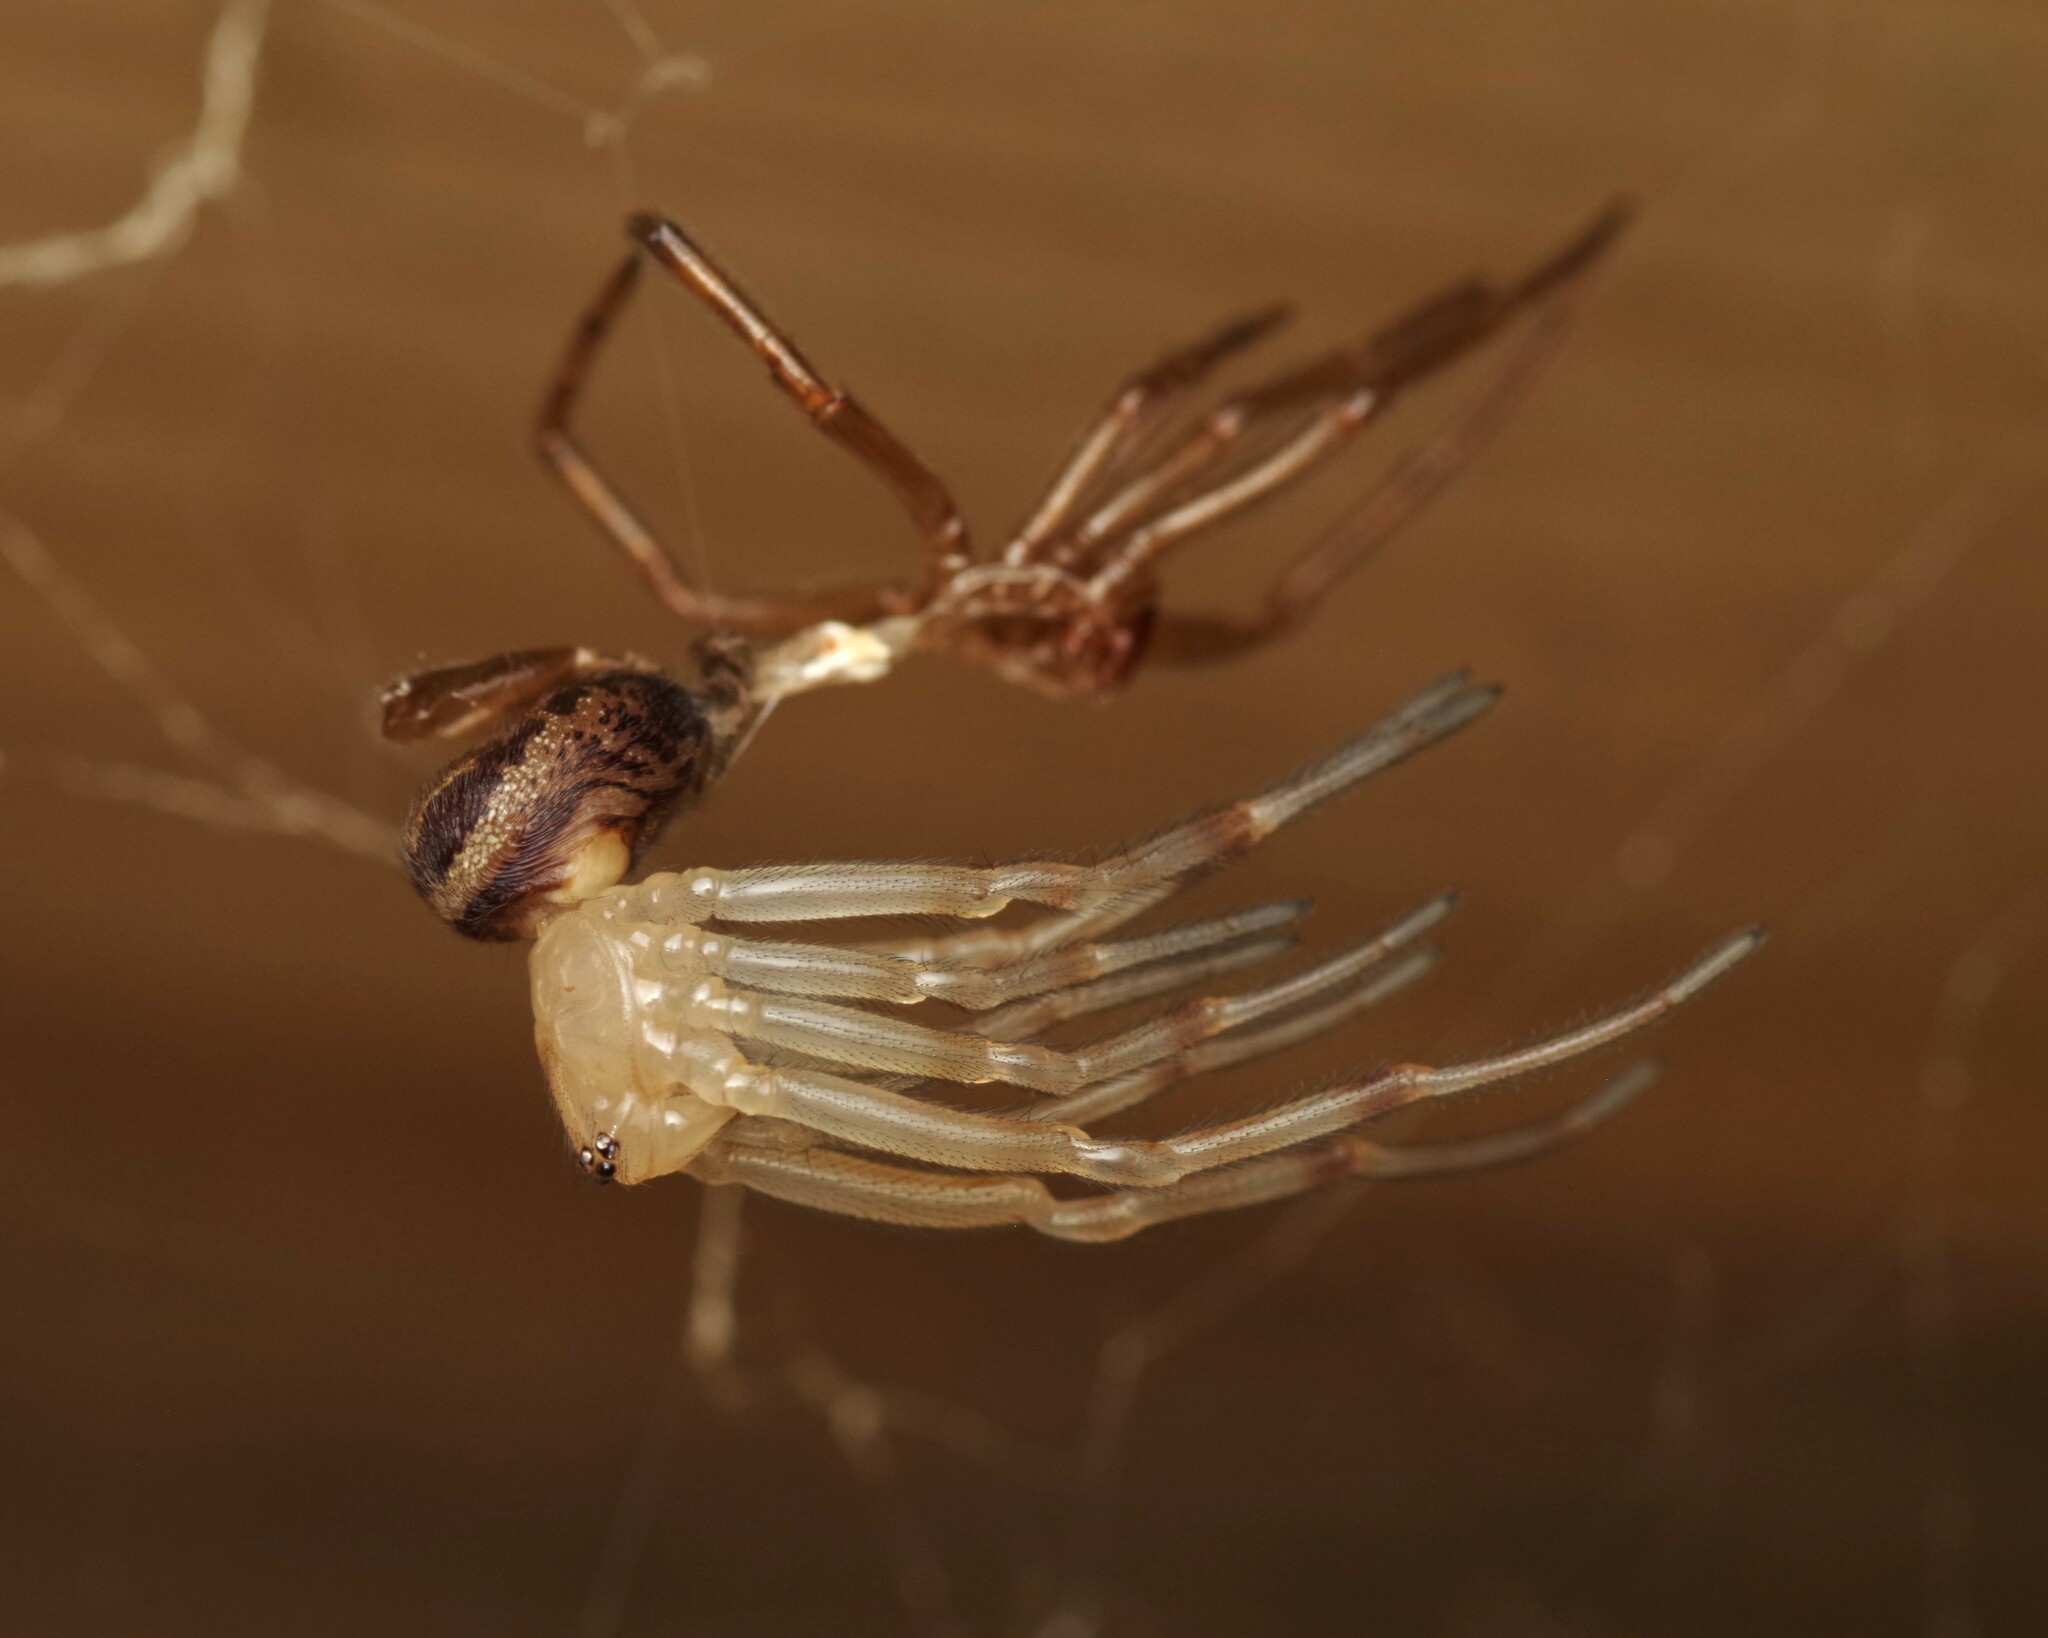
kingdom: Animalia
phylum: Arthropoda
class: Arachnida
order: Araneae
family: Theridiidae
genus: Steatoda
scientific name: Steatoda nobilis
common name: Cobweb weaver
